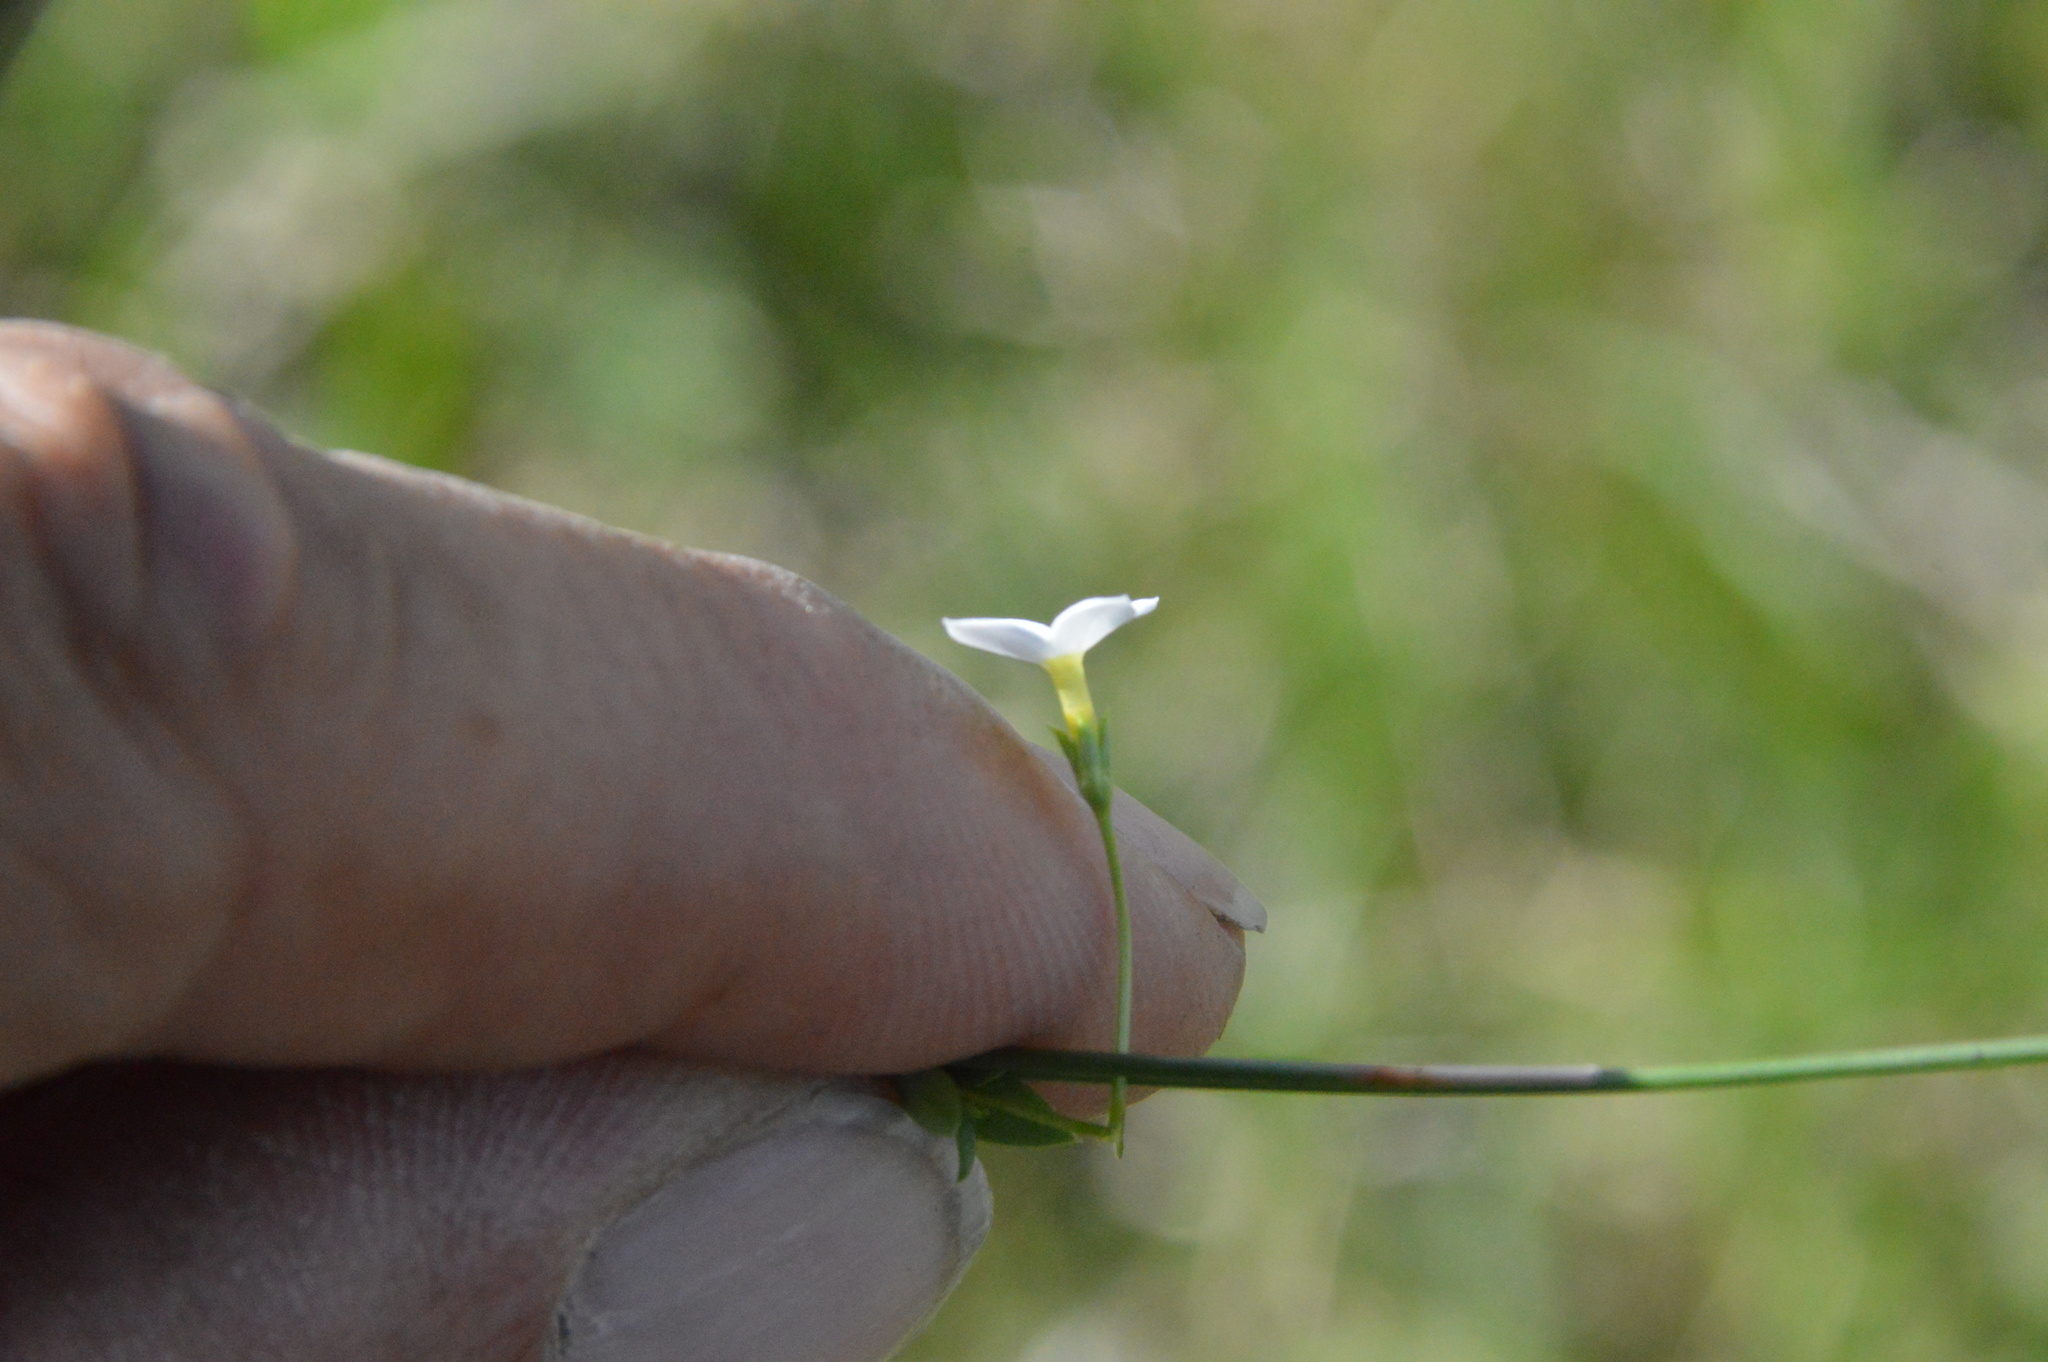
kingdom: Plantae
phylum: Tracheophyta
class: Magnoliopsida
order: Gentianales
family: Rubiaceae
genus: Houstonia
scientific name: Houstonia pusilla
